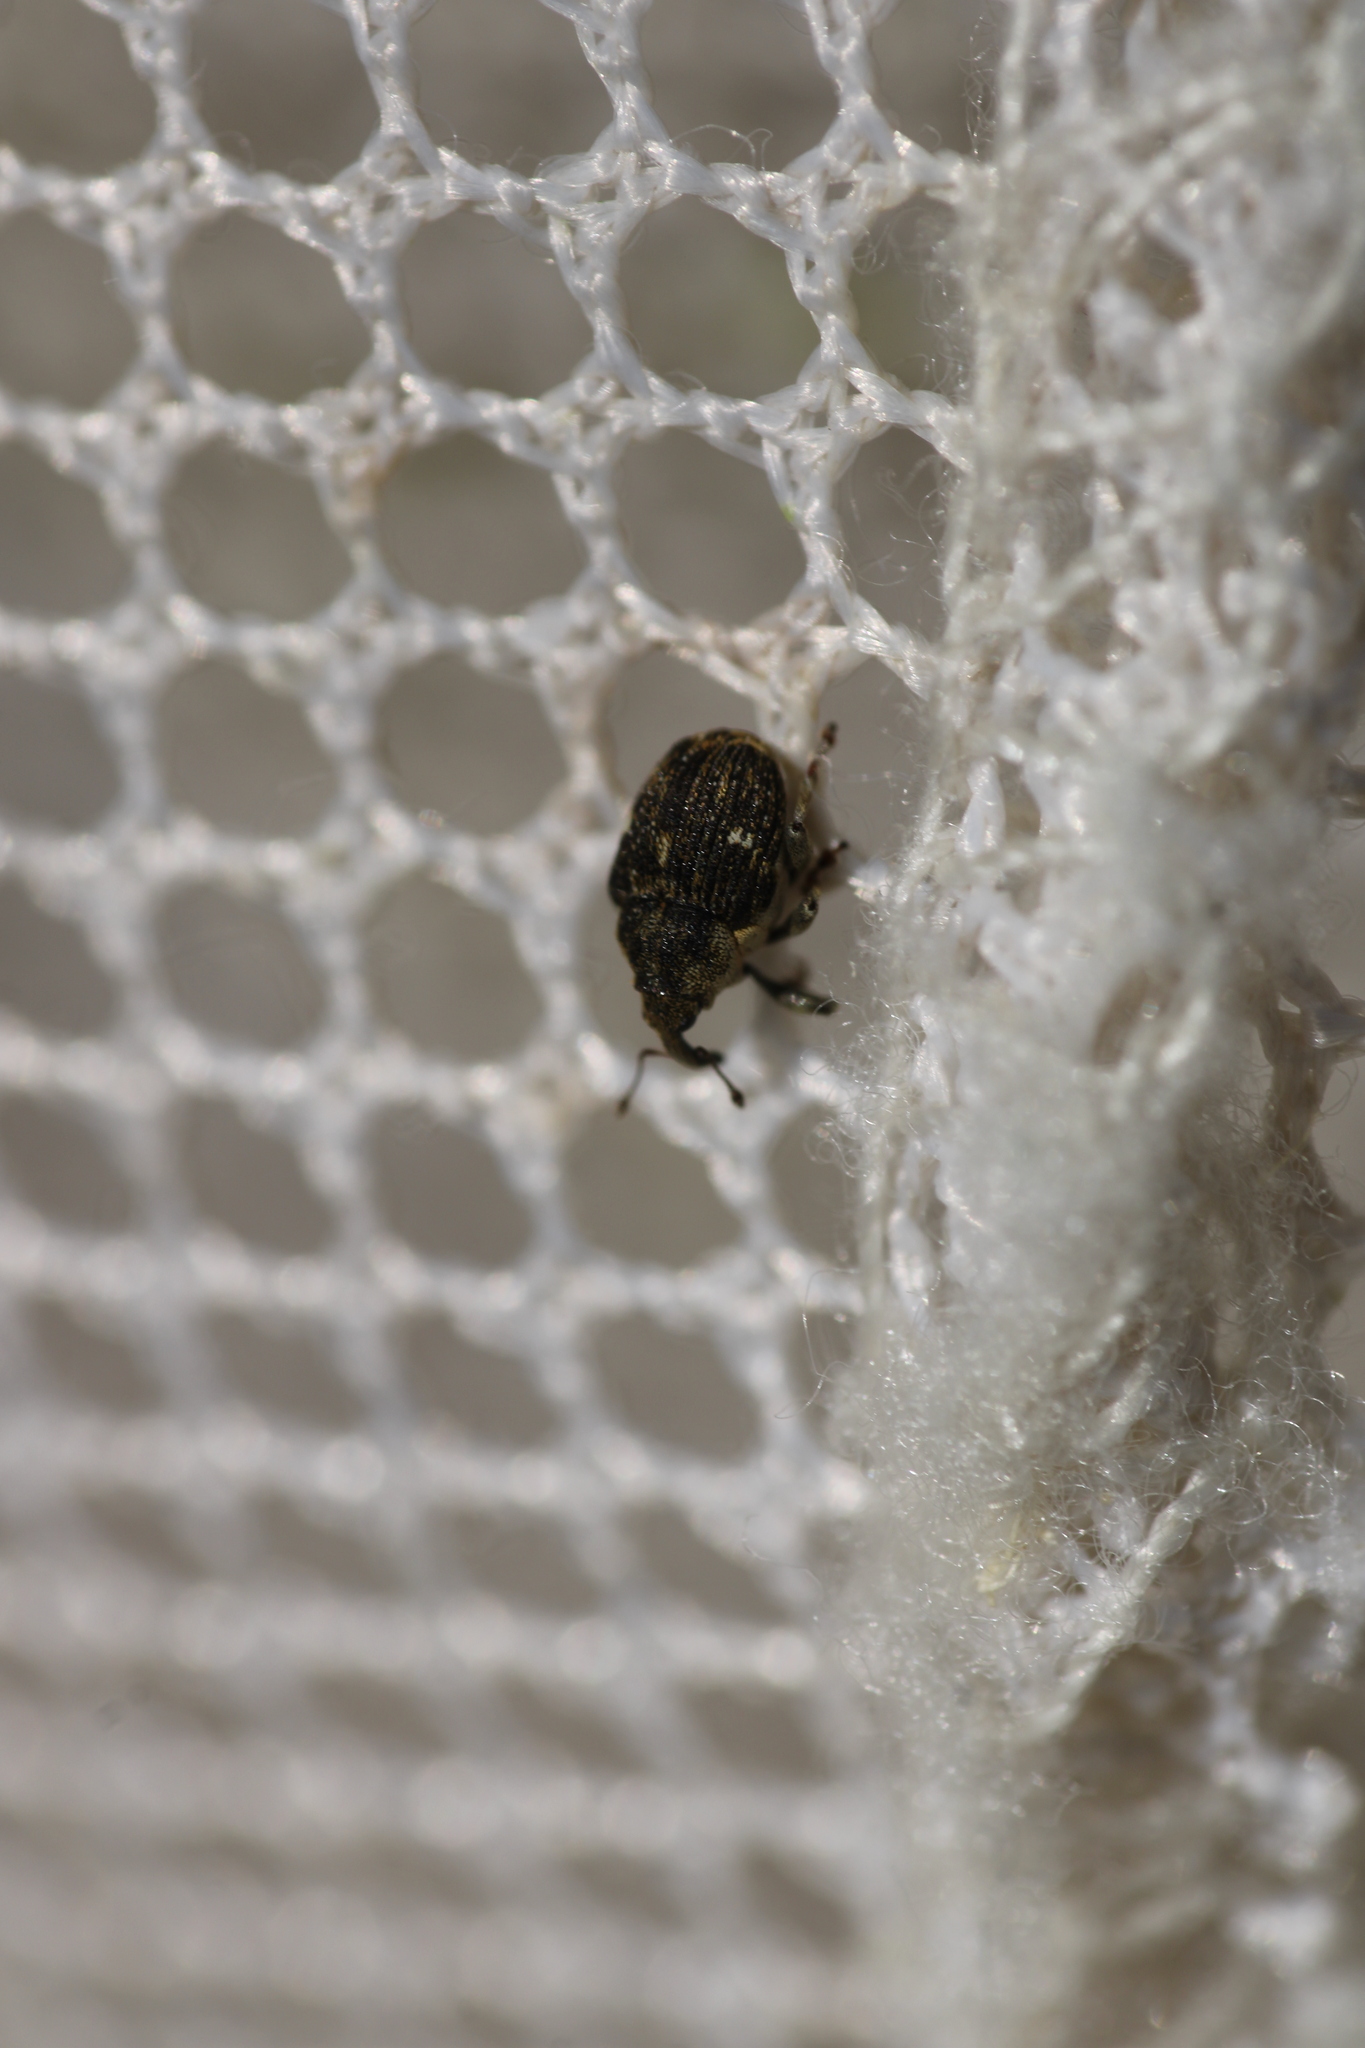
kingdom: Animalia
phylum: Arthropoda
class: Insecta
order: Coleoptera
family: Curculionidae
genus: Nedyus
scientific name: Nedyus quadrimaculatus
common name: Small nettle weevil
